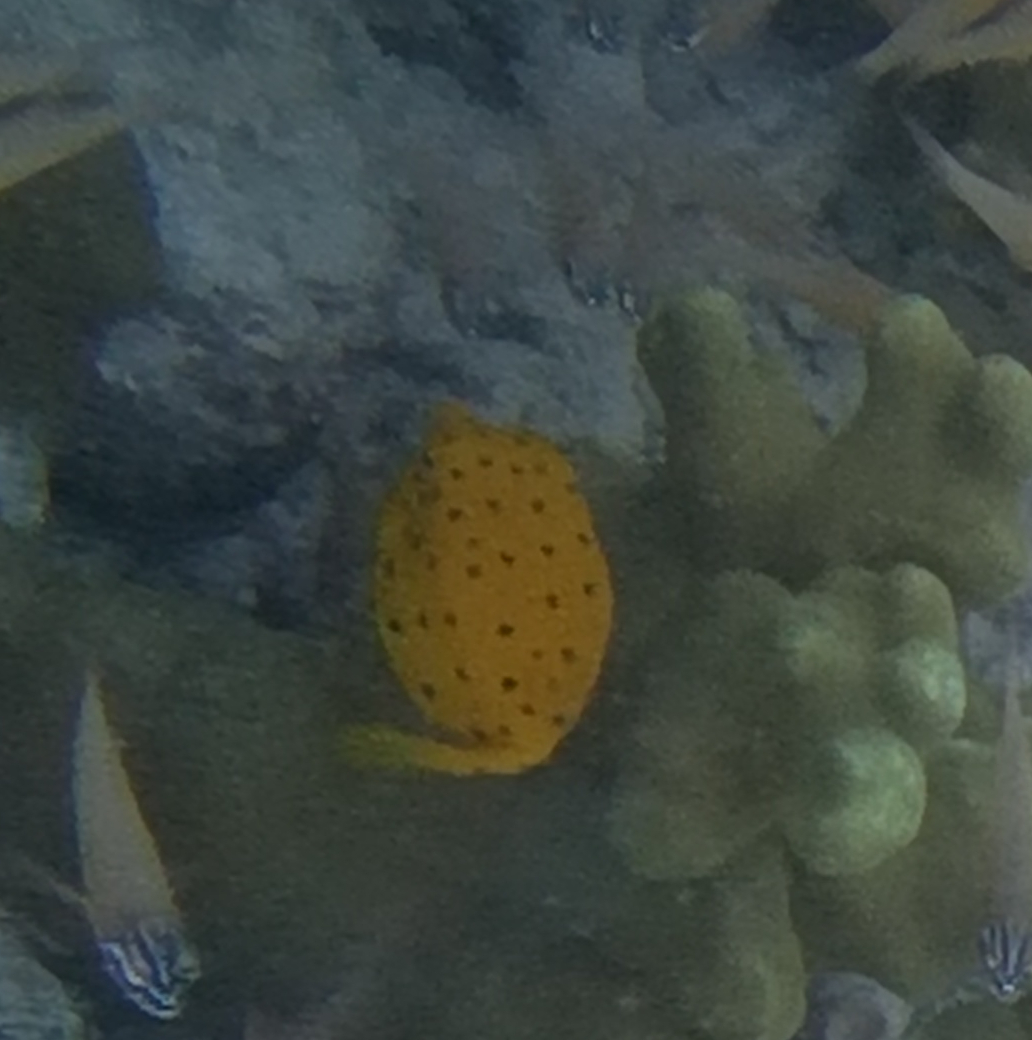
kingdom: Animalia
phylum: Chordata
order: Tetraodontiformes
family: Ostraciidae
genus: Ostracion
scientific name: Ostracion cubicus
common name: Cube trunkfish
